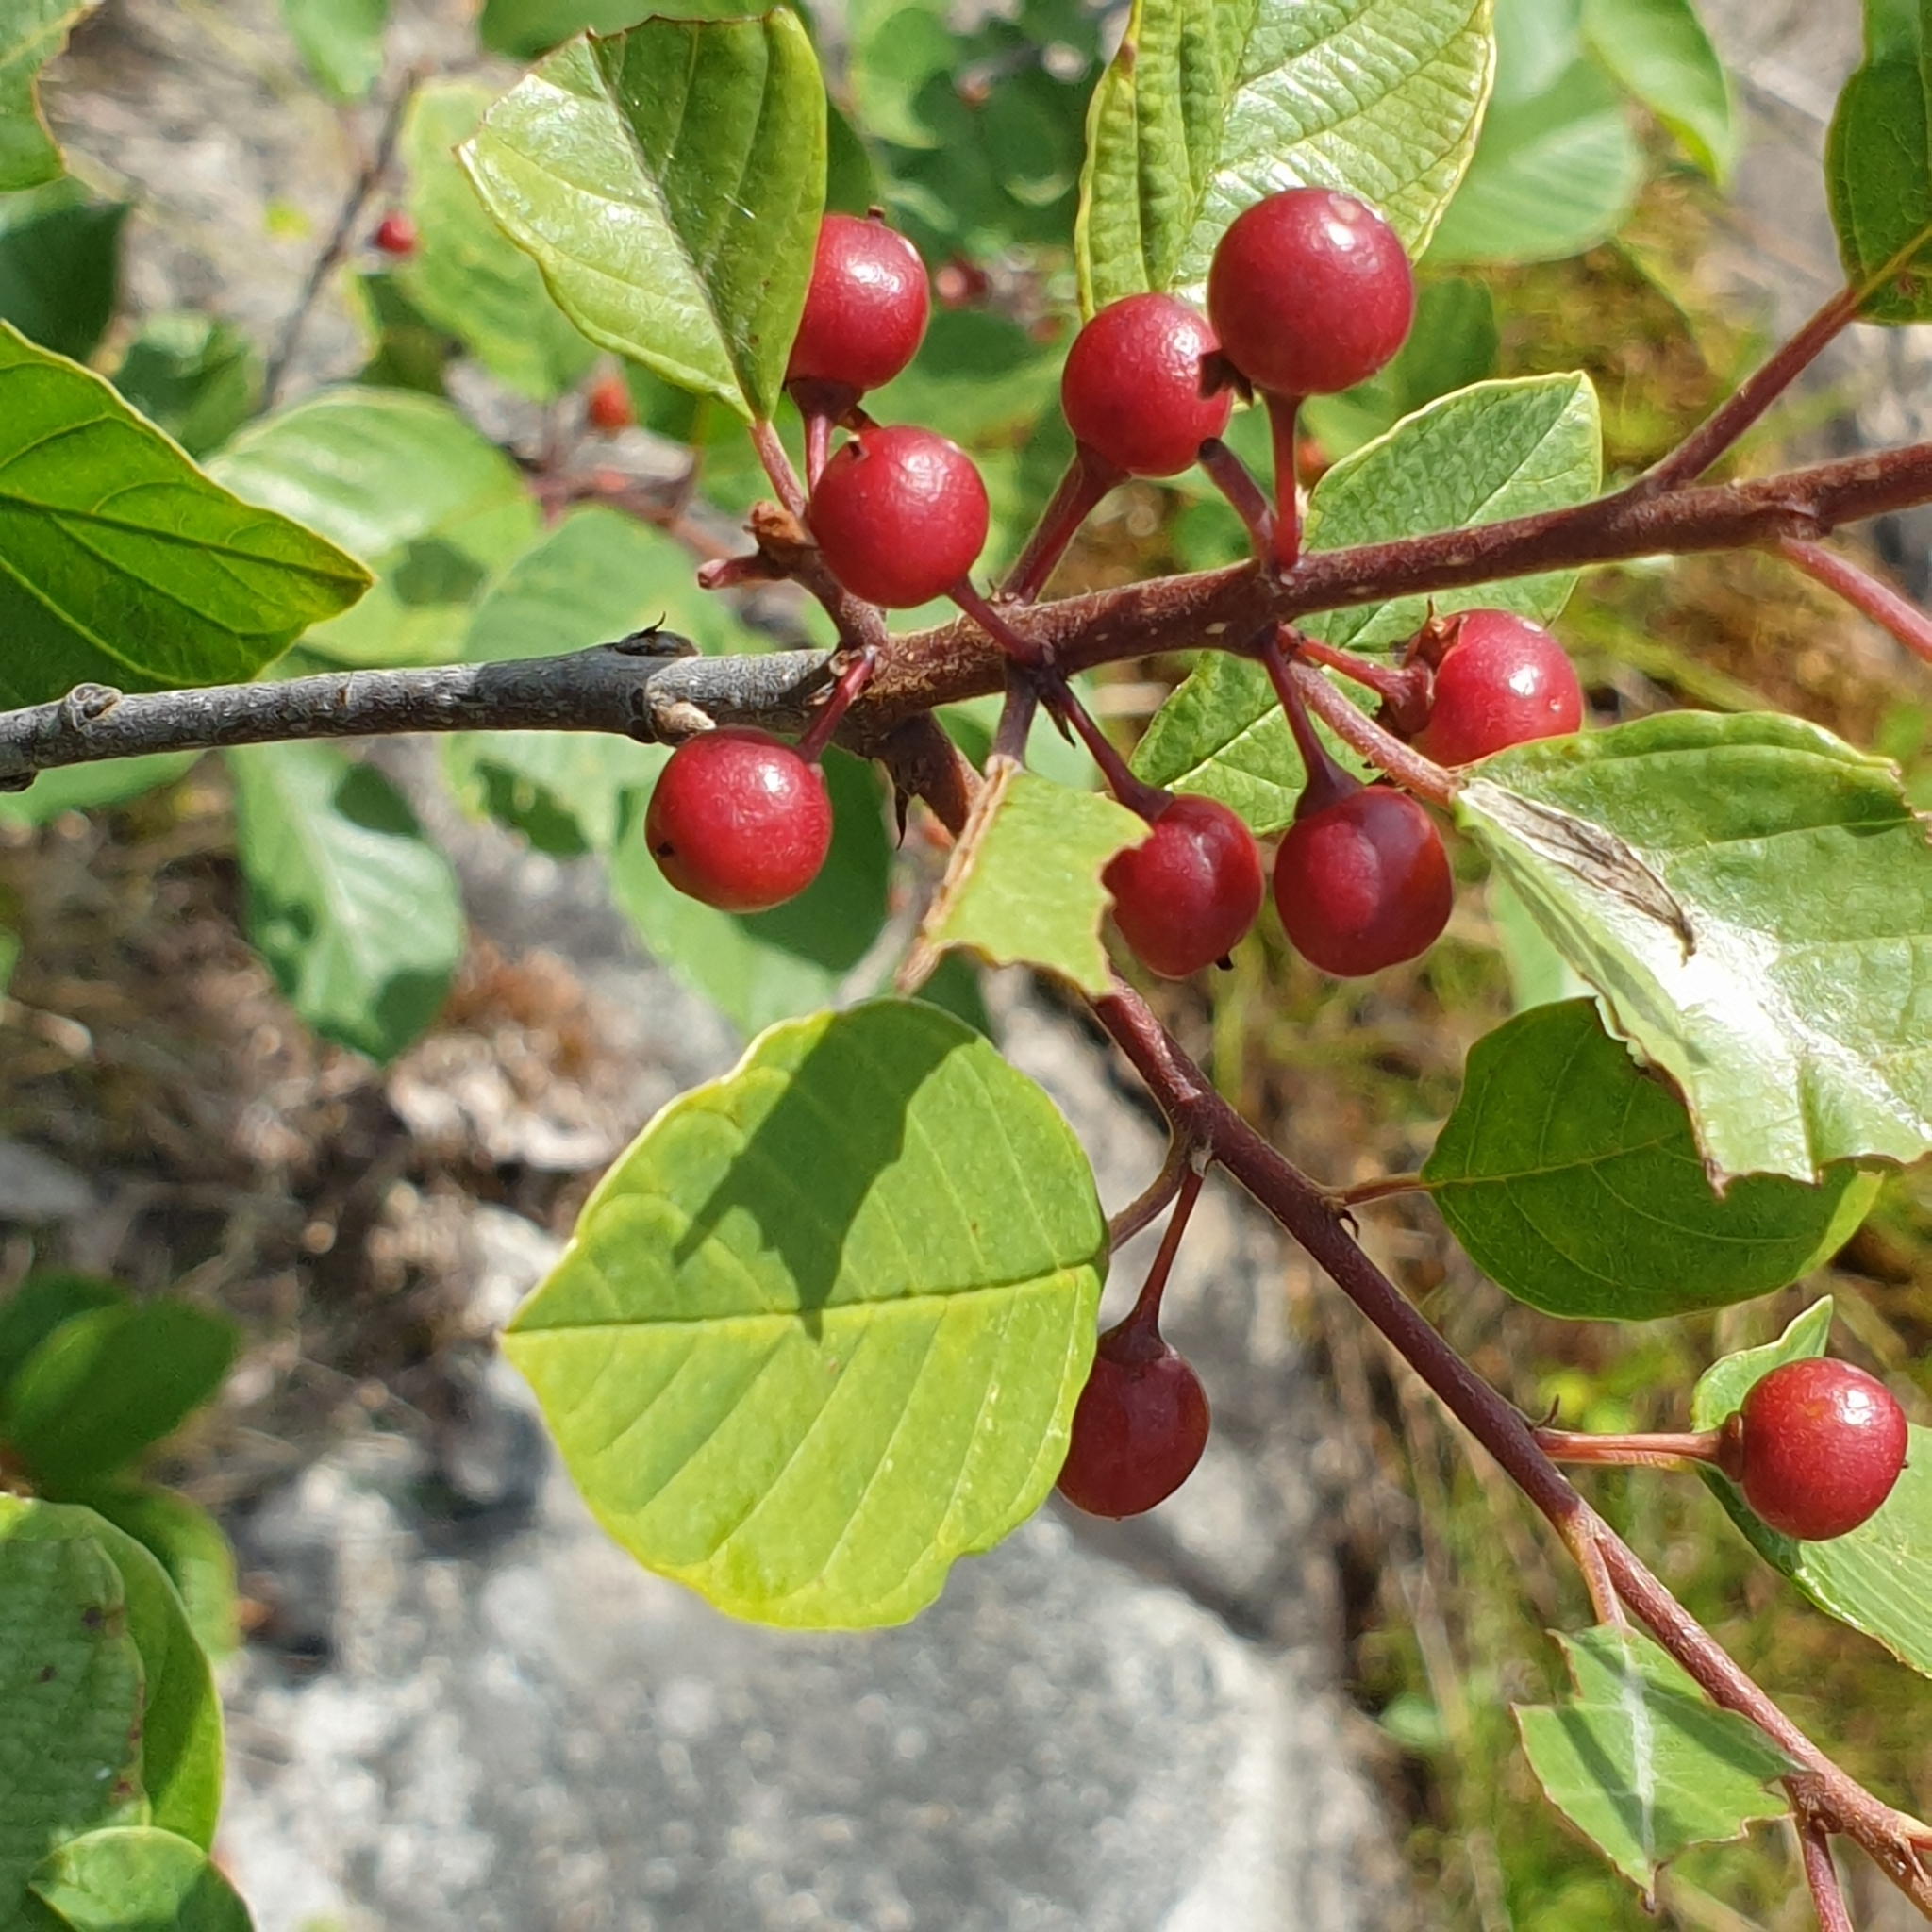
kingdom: Plantae
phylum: Tracheophyta
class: Magnoliopsida
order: Rosales
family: Rhamnaceae
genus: Frangula
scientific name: Frangula alnus
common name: Alder buckthorn
